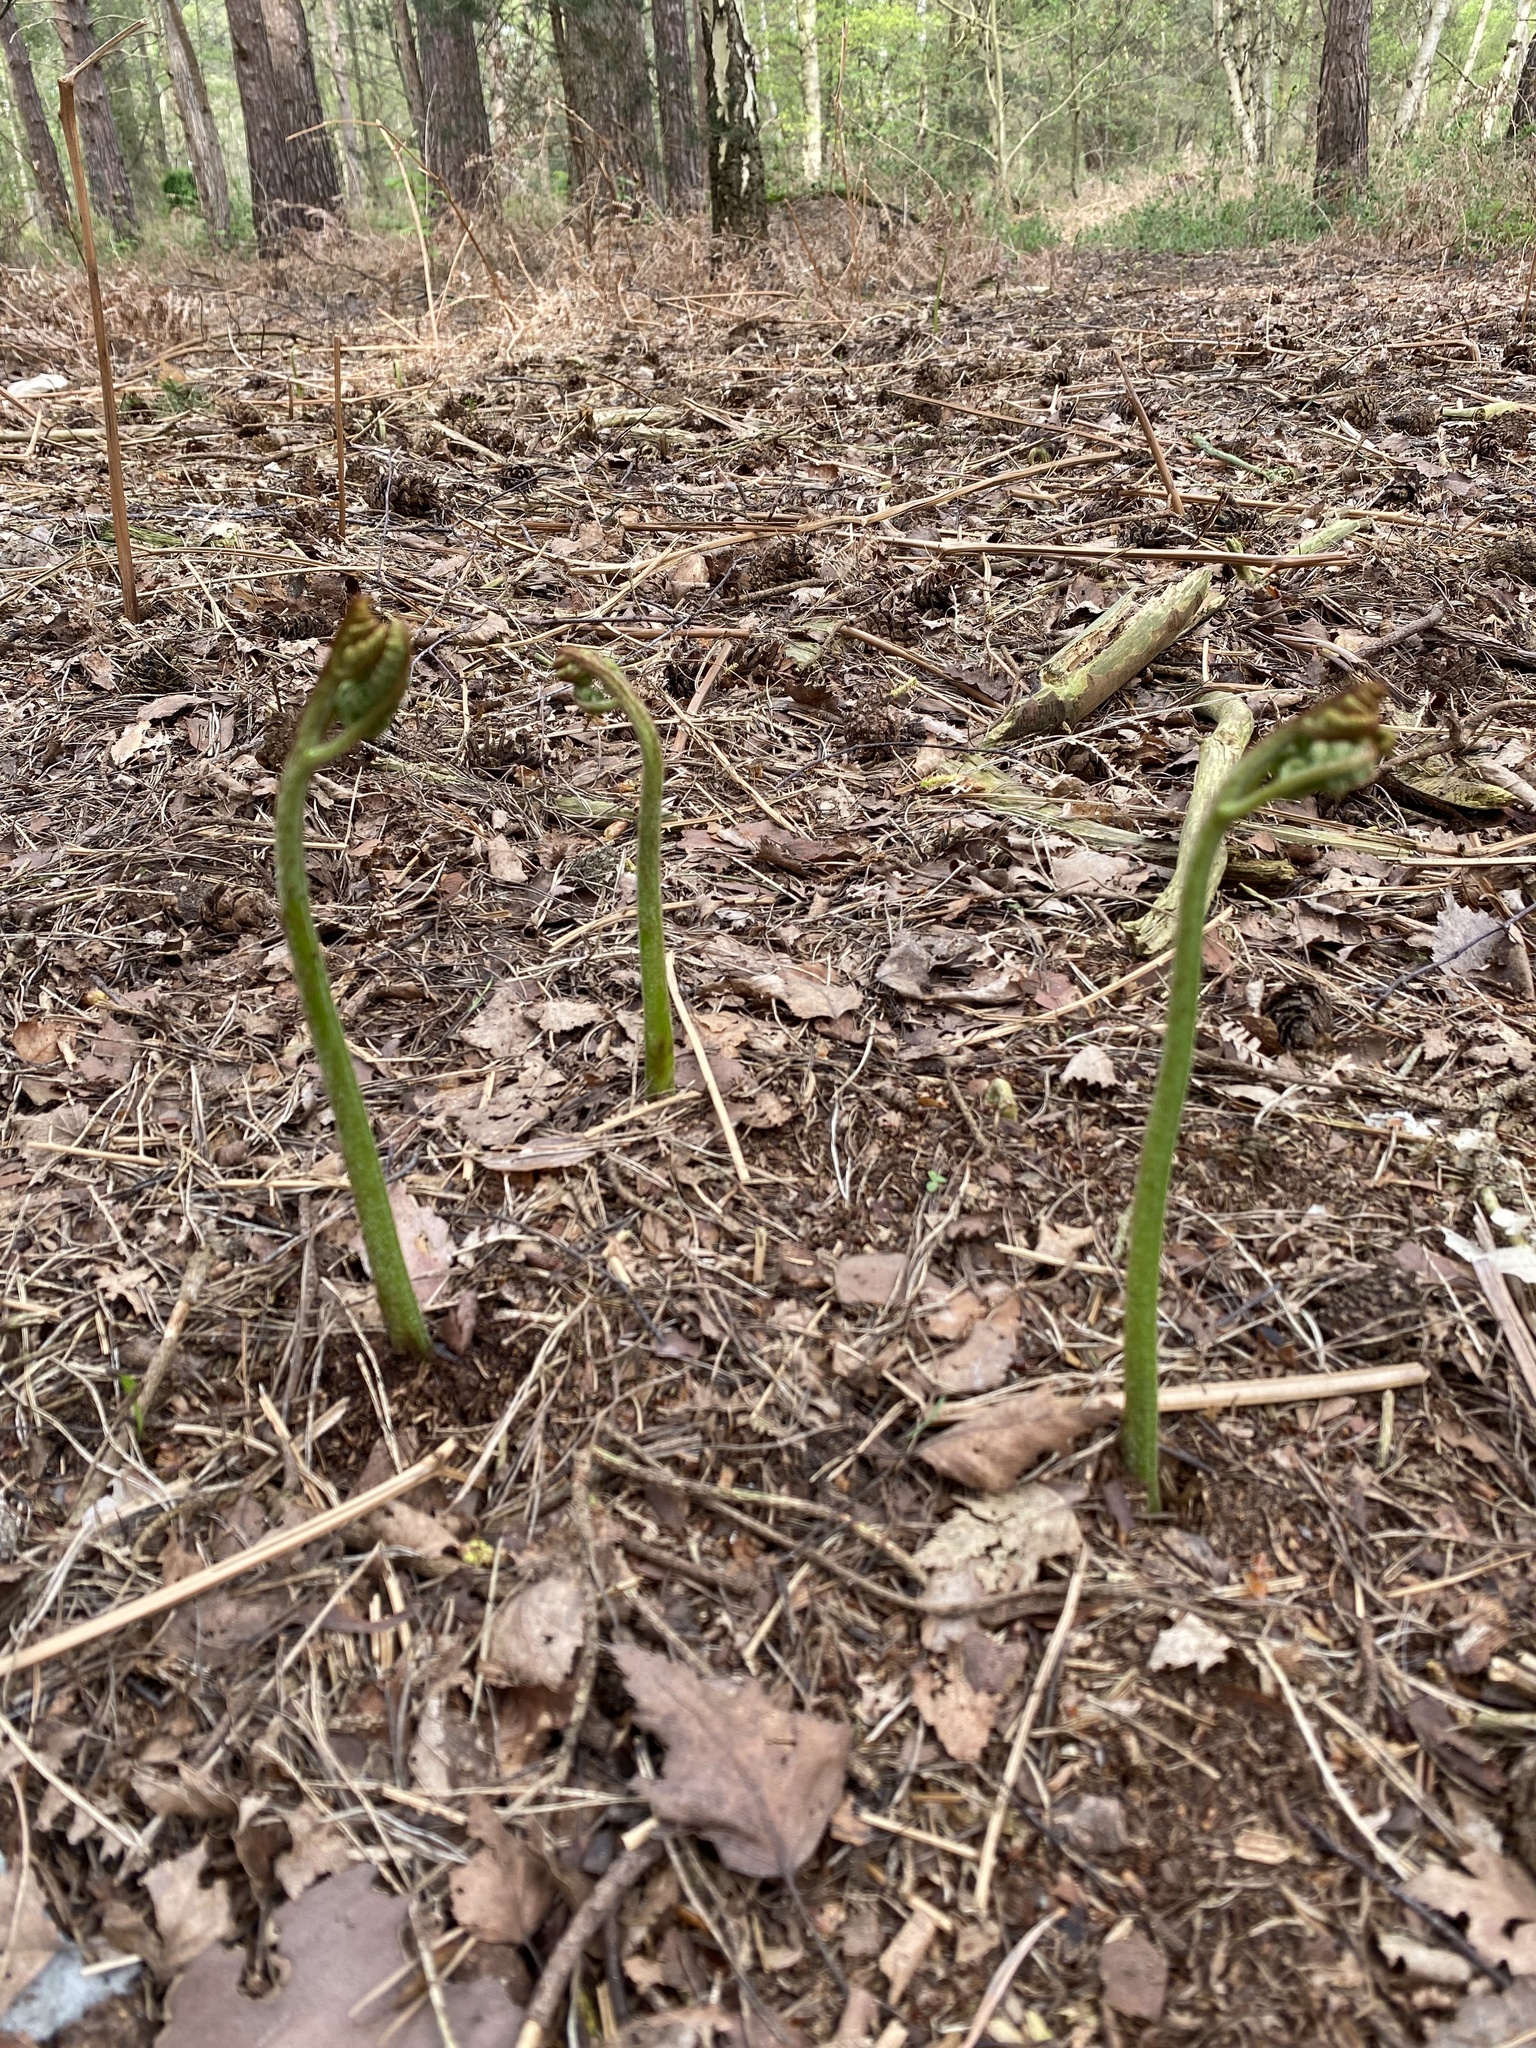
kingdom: Plantae
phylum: Tracheophyta
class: Polypodiopsida
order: Polypodiales
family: Dennstaedtiaceae
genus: Pteridium
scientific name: Pteridium aquilinum
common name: Bracken
